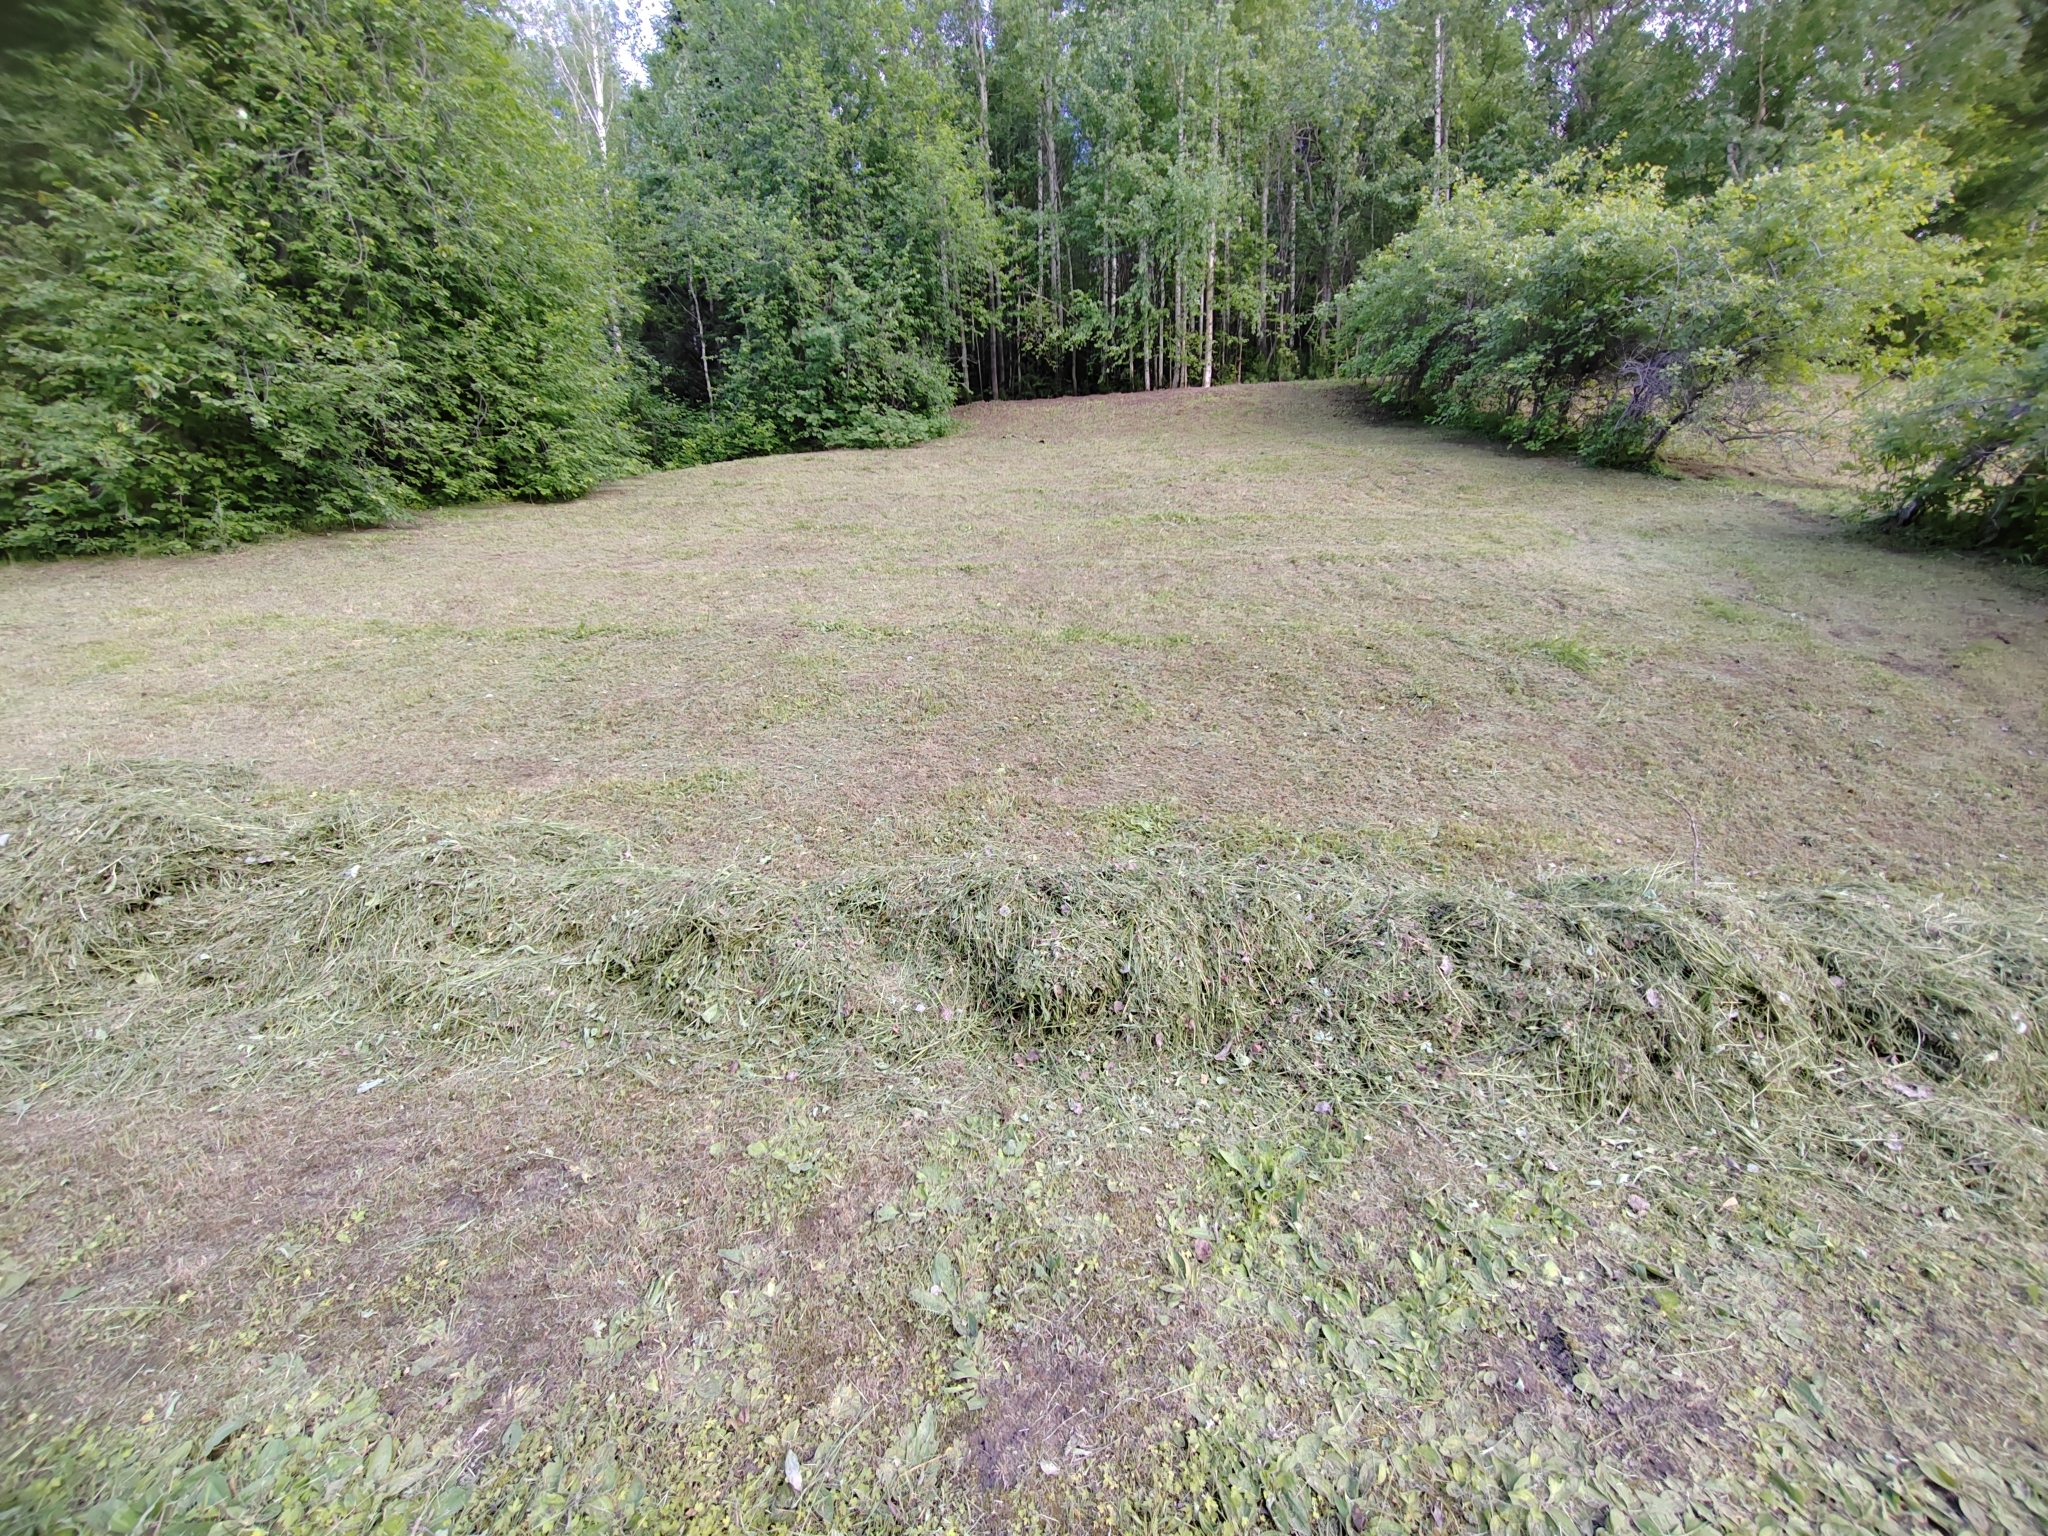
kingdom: Plantae
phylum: Tracheophyta
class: Magnoliopsida
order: Lamiales
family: Plantaginaceae
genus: Plantago
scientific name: Plantago media
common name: Hoary plantain
